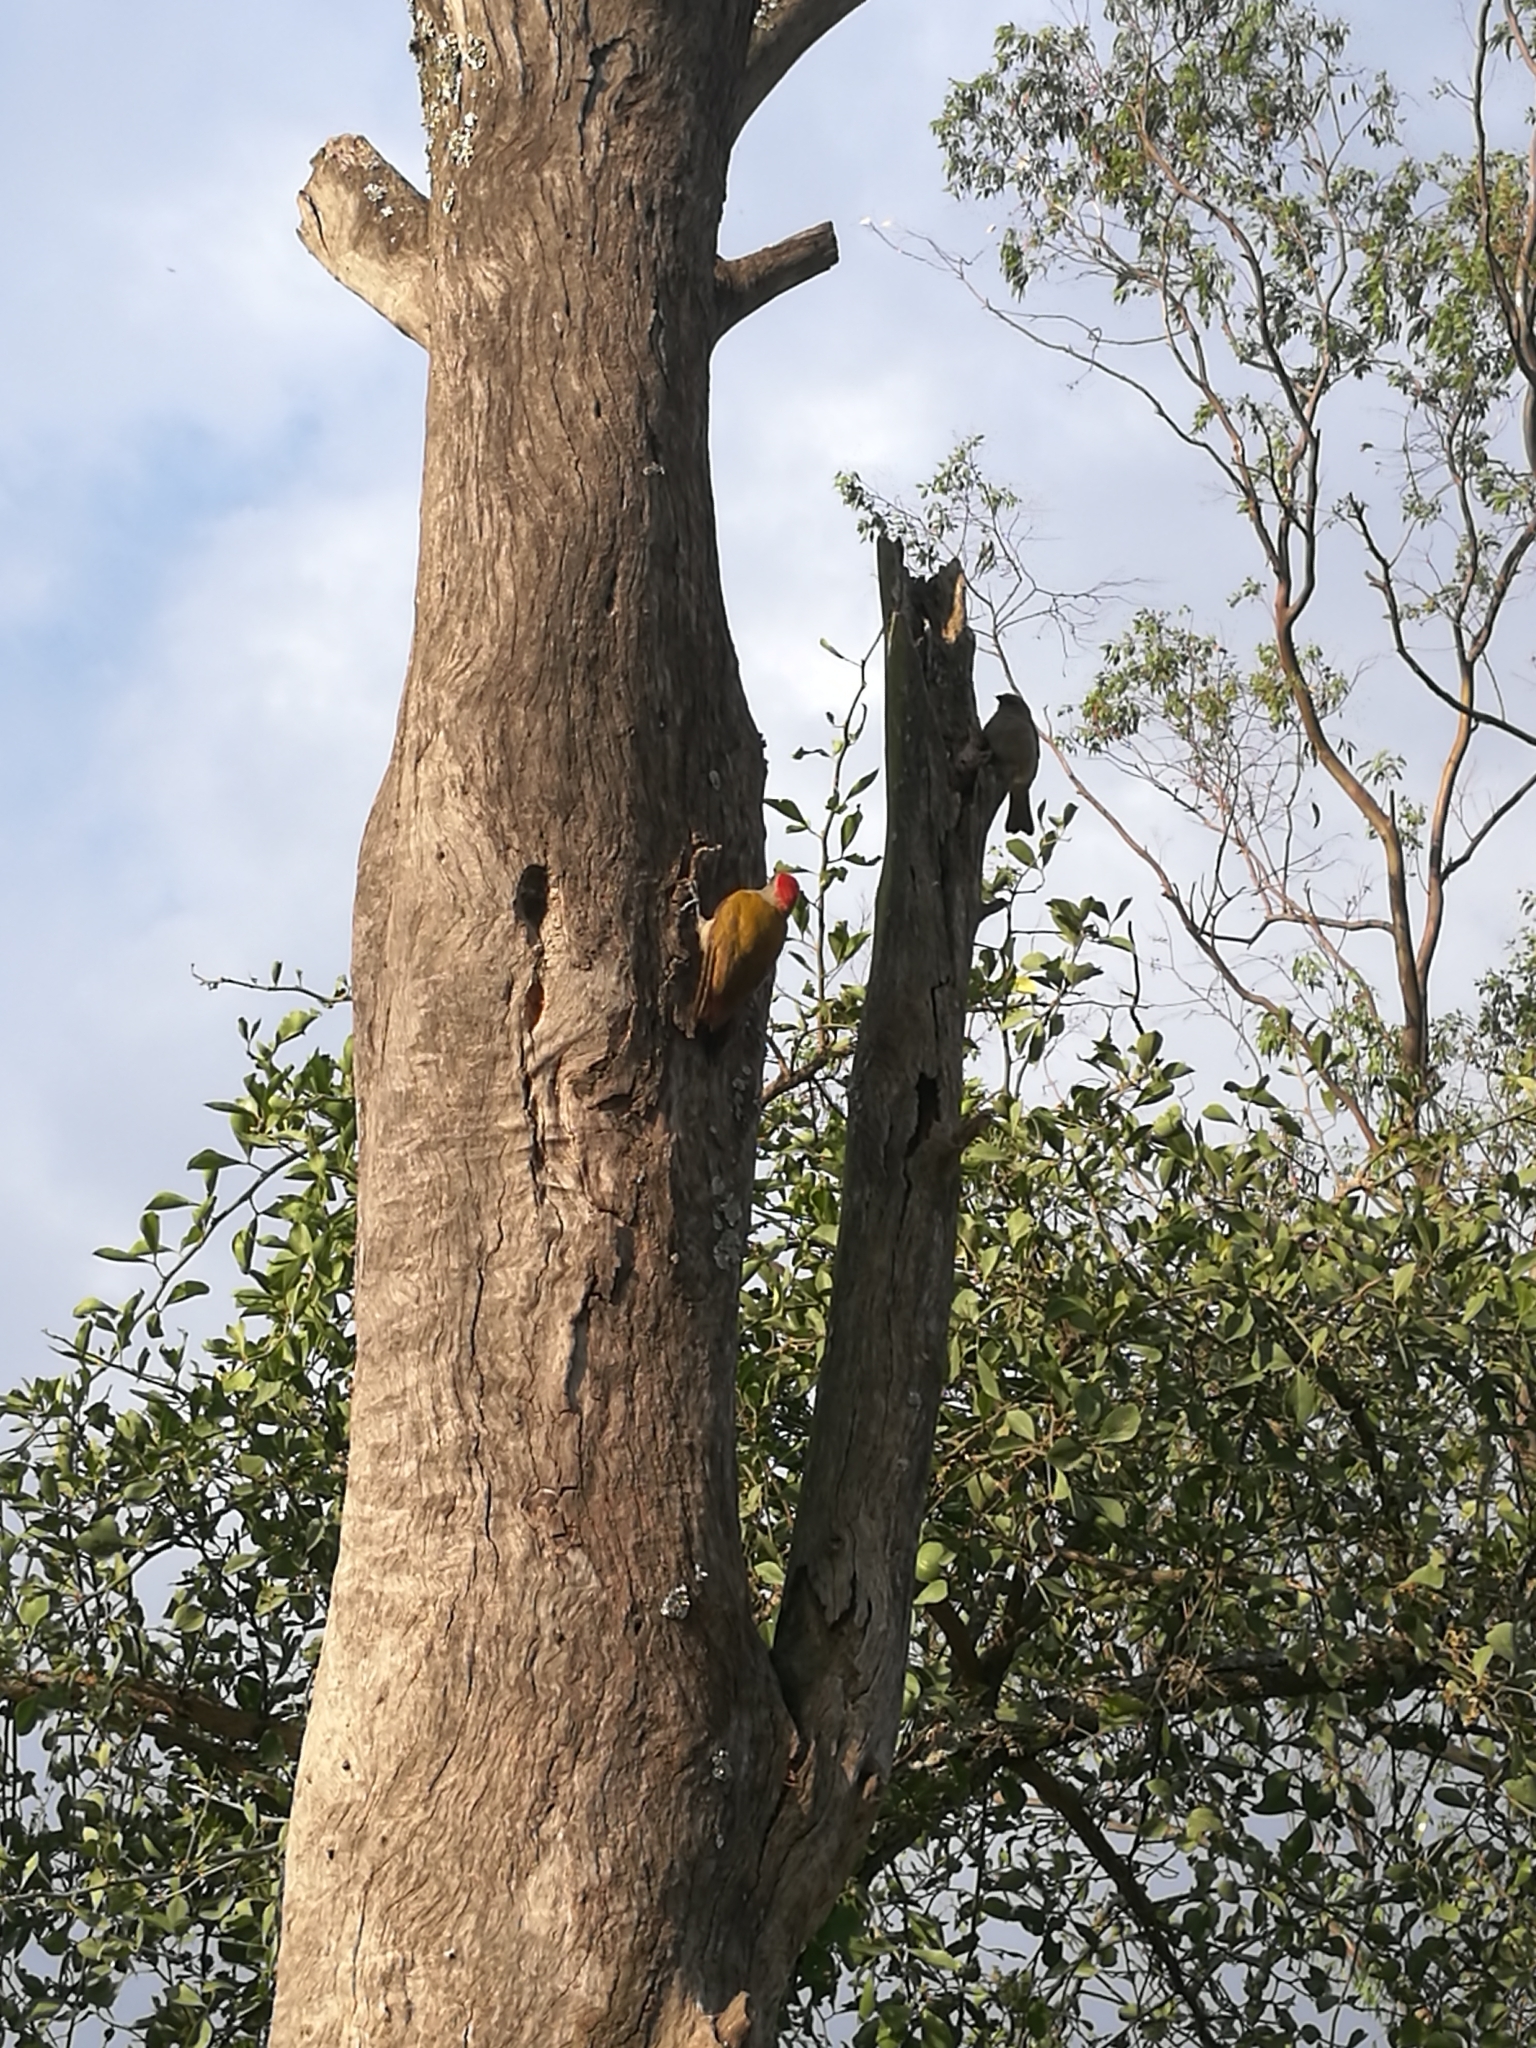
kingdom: Animalia
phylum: Chordata
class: Aves
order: Piciformes
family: Picidae
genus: Dendropicos
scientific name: Dendropicos spodocephalus
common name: Eastern grey woodpecker
